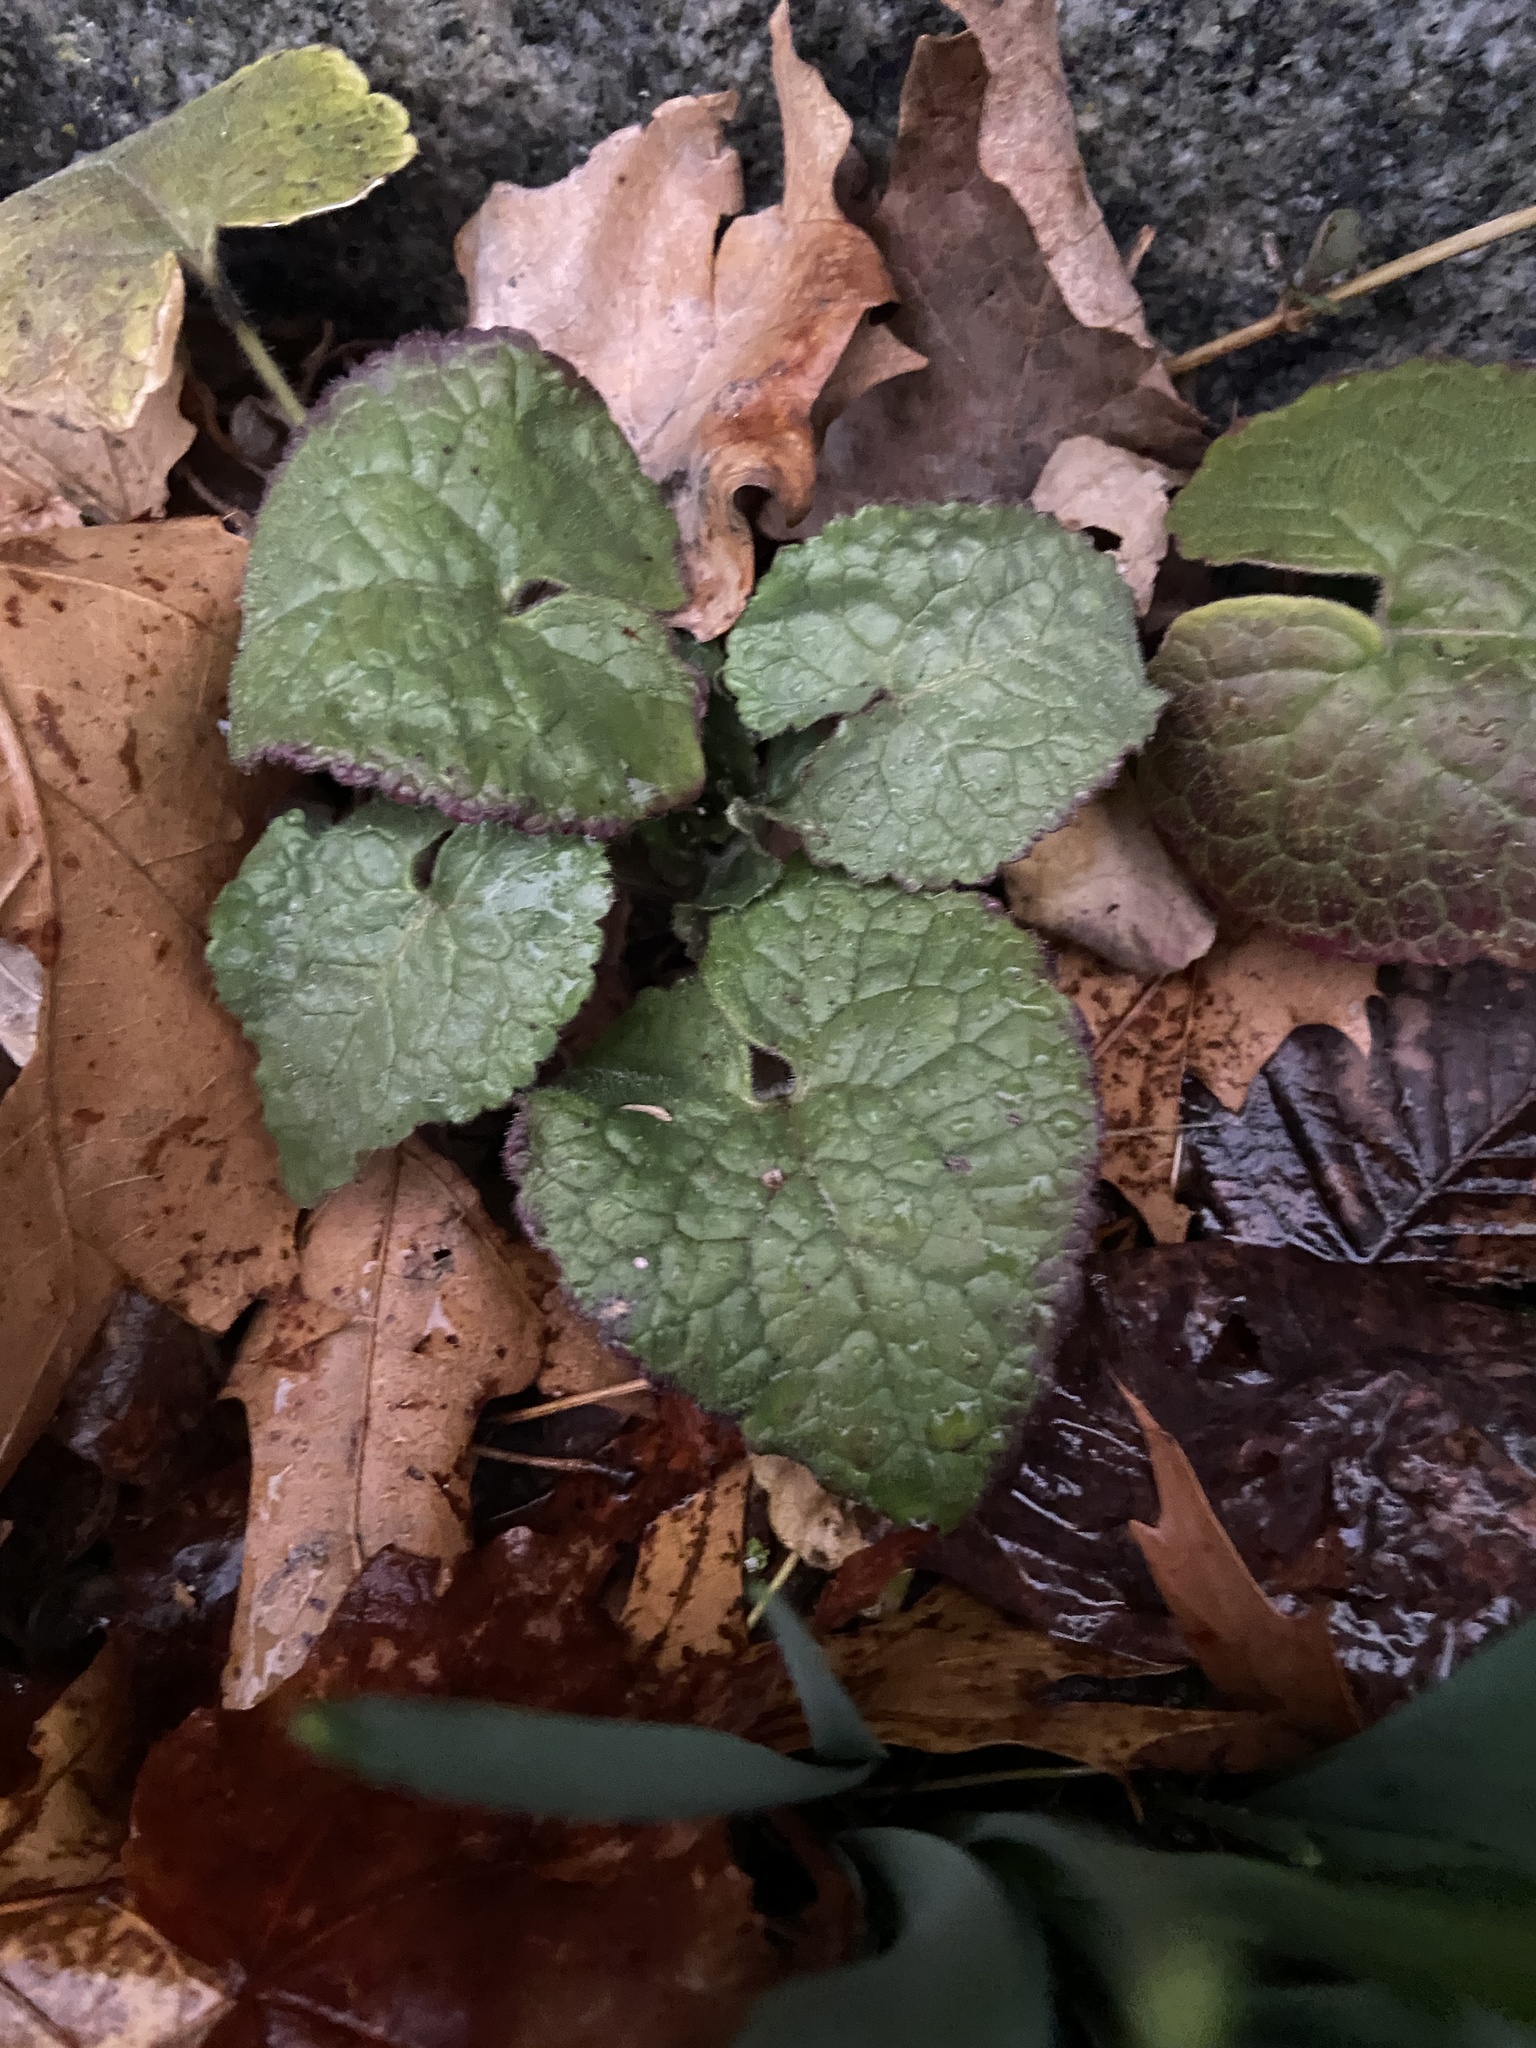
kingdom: Plantae
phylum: Tracheophyta
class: Magnoliopsida
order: Brassicales
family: Brassicaceae
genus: Lunaria
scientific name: Lunaria annua
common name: Honesty
